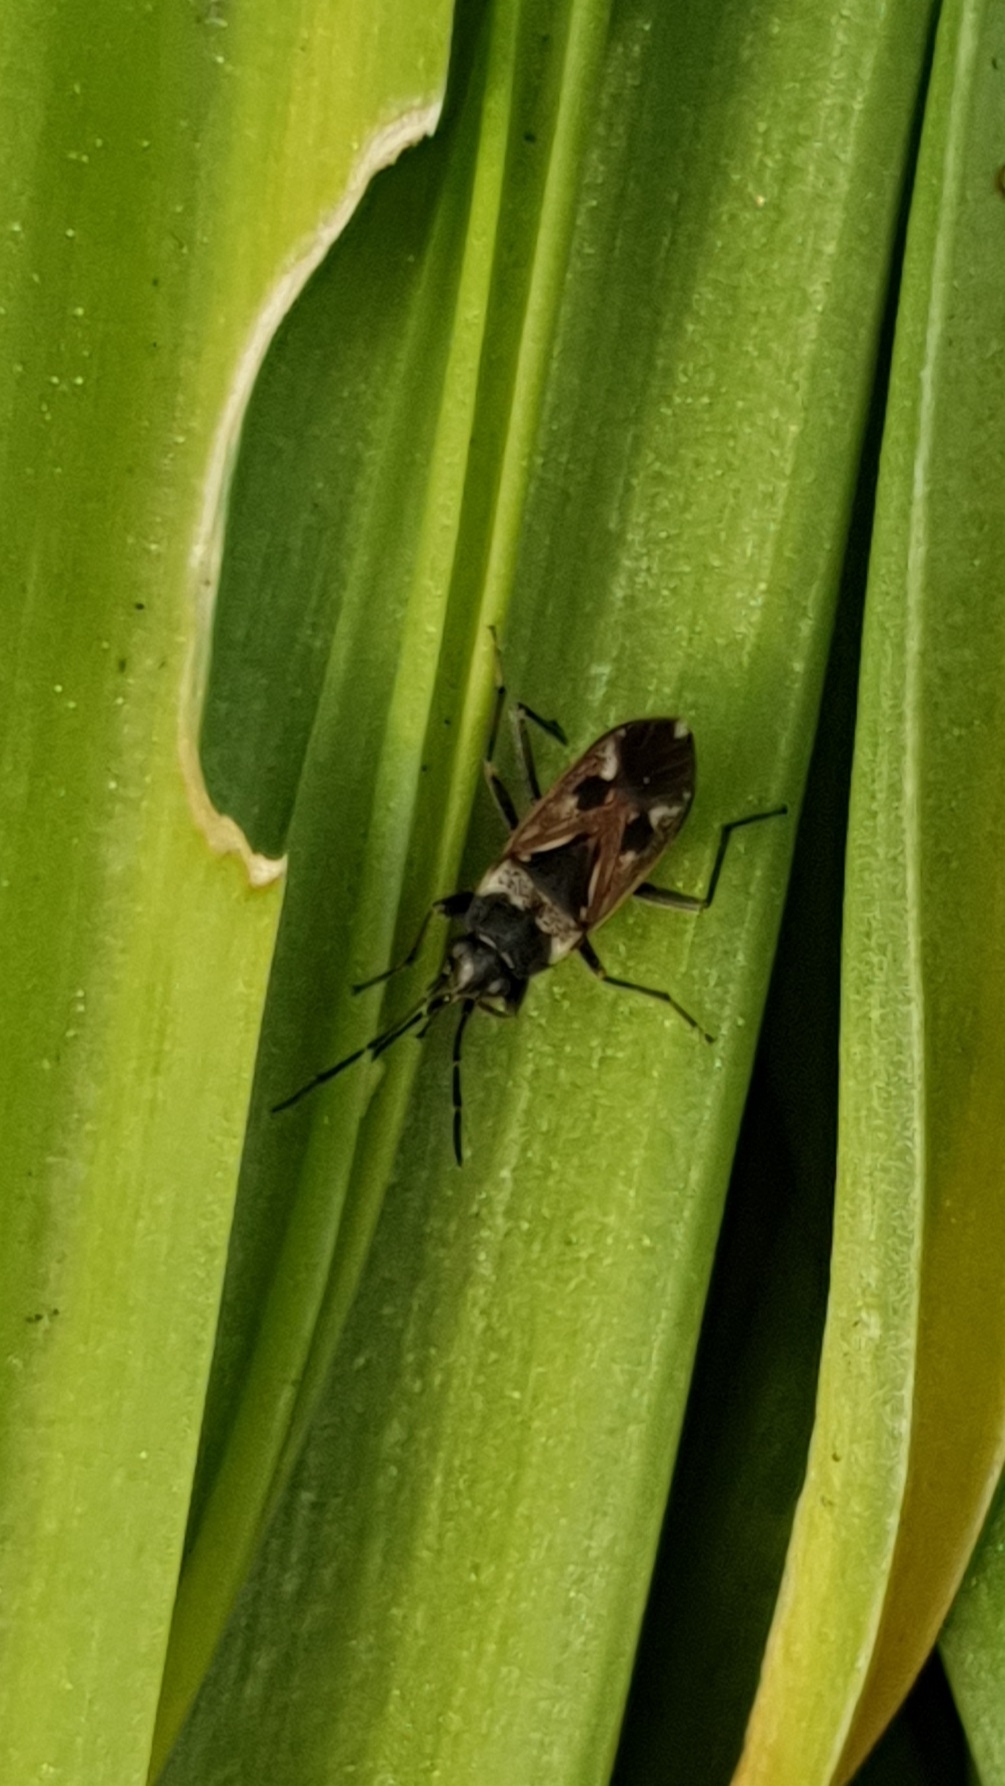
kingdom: Animalia
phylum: Arthropoda
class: Insecta
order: Hemiptera
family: Rhyparochromidae
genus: Rhyparochromus
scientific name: Rhyparochromus vulgaris
